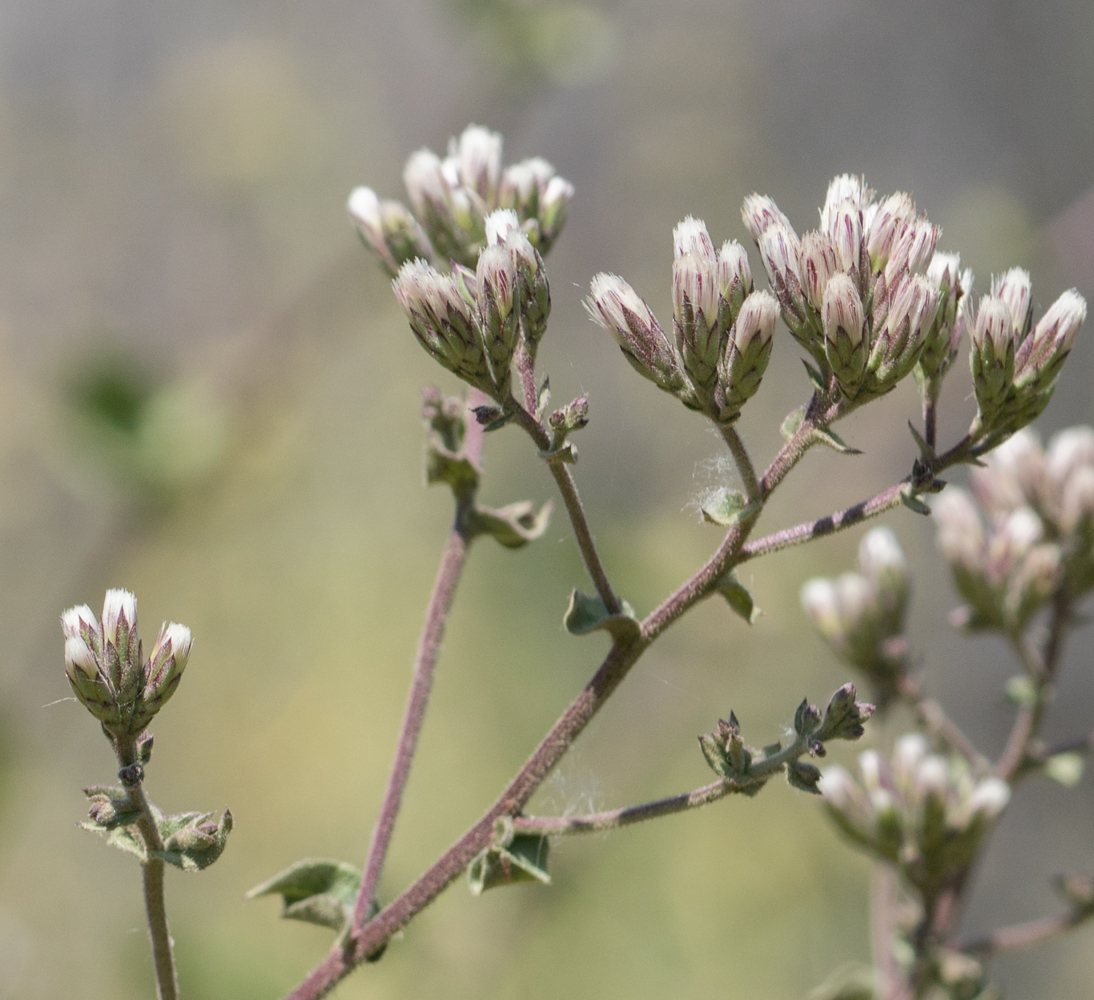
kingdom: Plantae
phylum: Tracheophyta
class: Magnoliopsida
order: Asterales
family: Asteraceae
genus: Acourtia
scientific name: Acourtia microcephala
